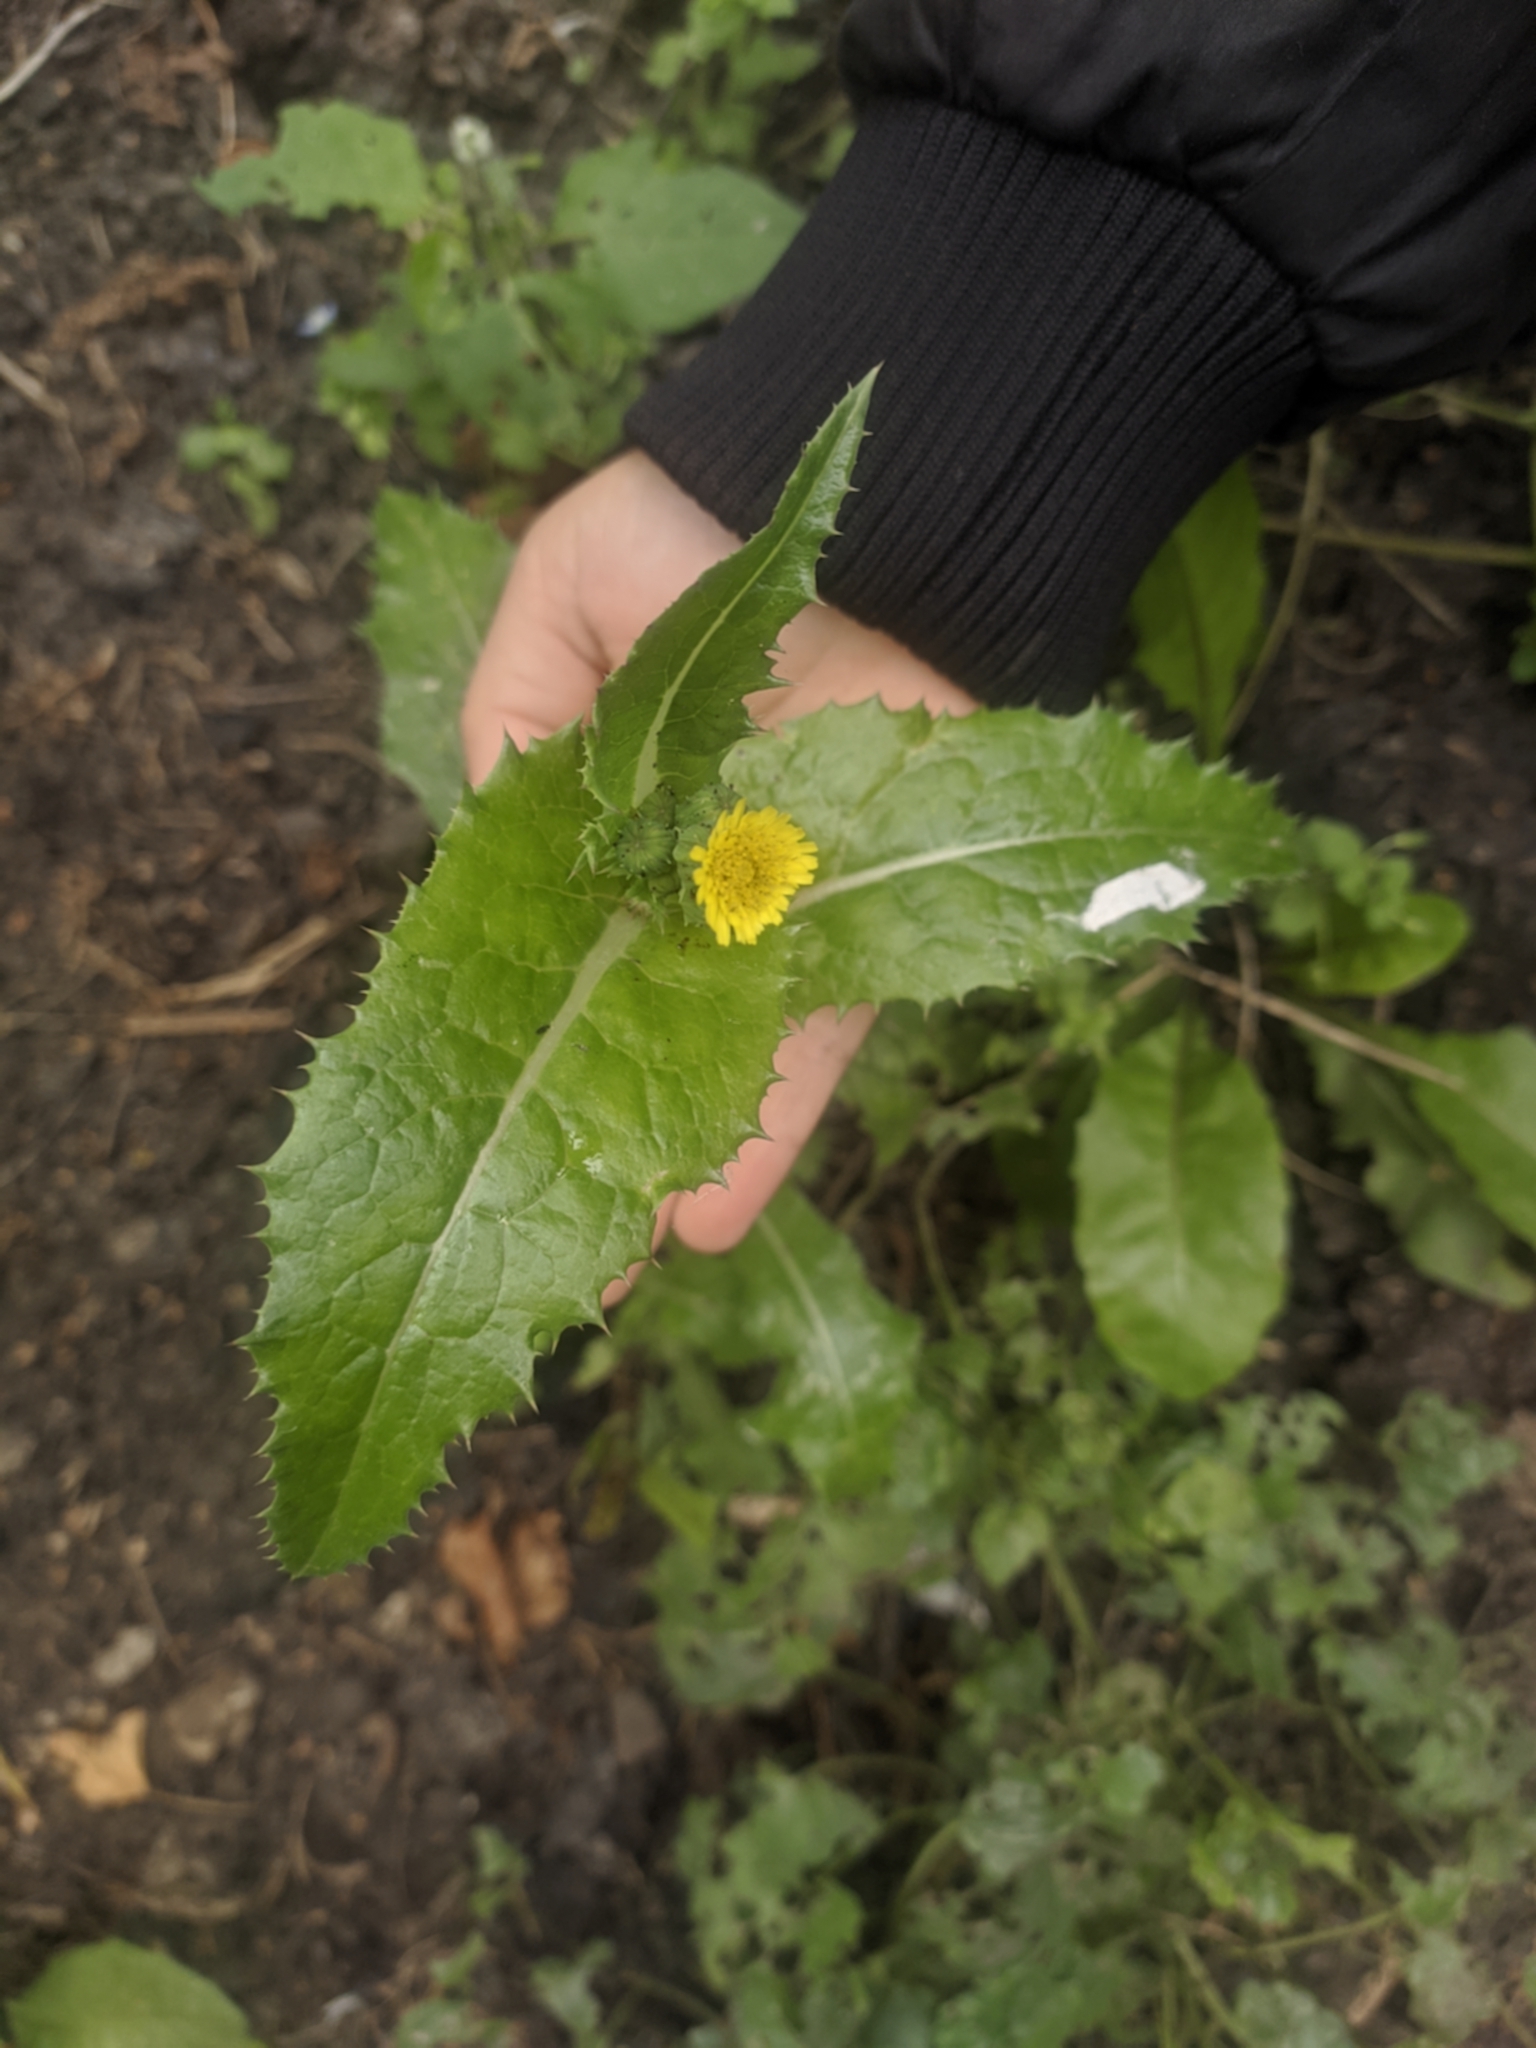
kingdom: Plantae
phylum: Tracheophyta
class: Magnoliopsida
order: Asterales
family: Asteraceae
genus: Sonchus
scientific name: Sonchus asper
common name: Prickly sow-thistle
